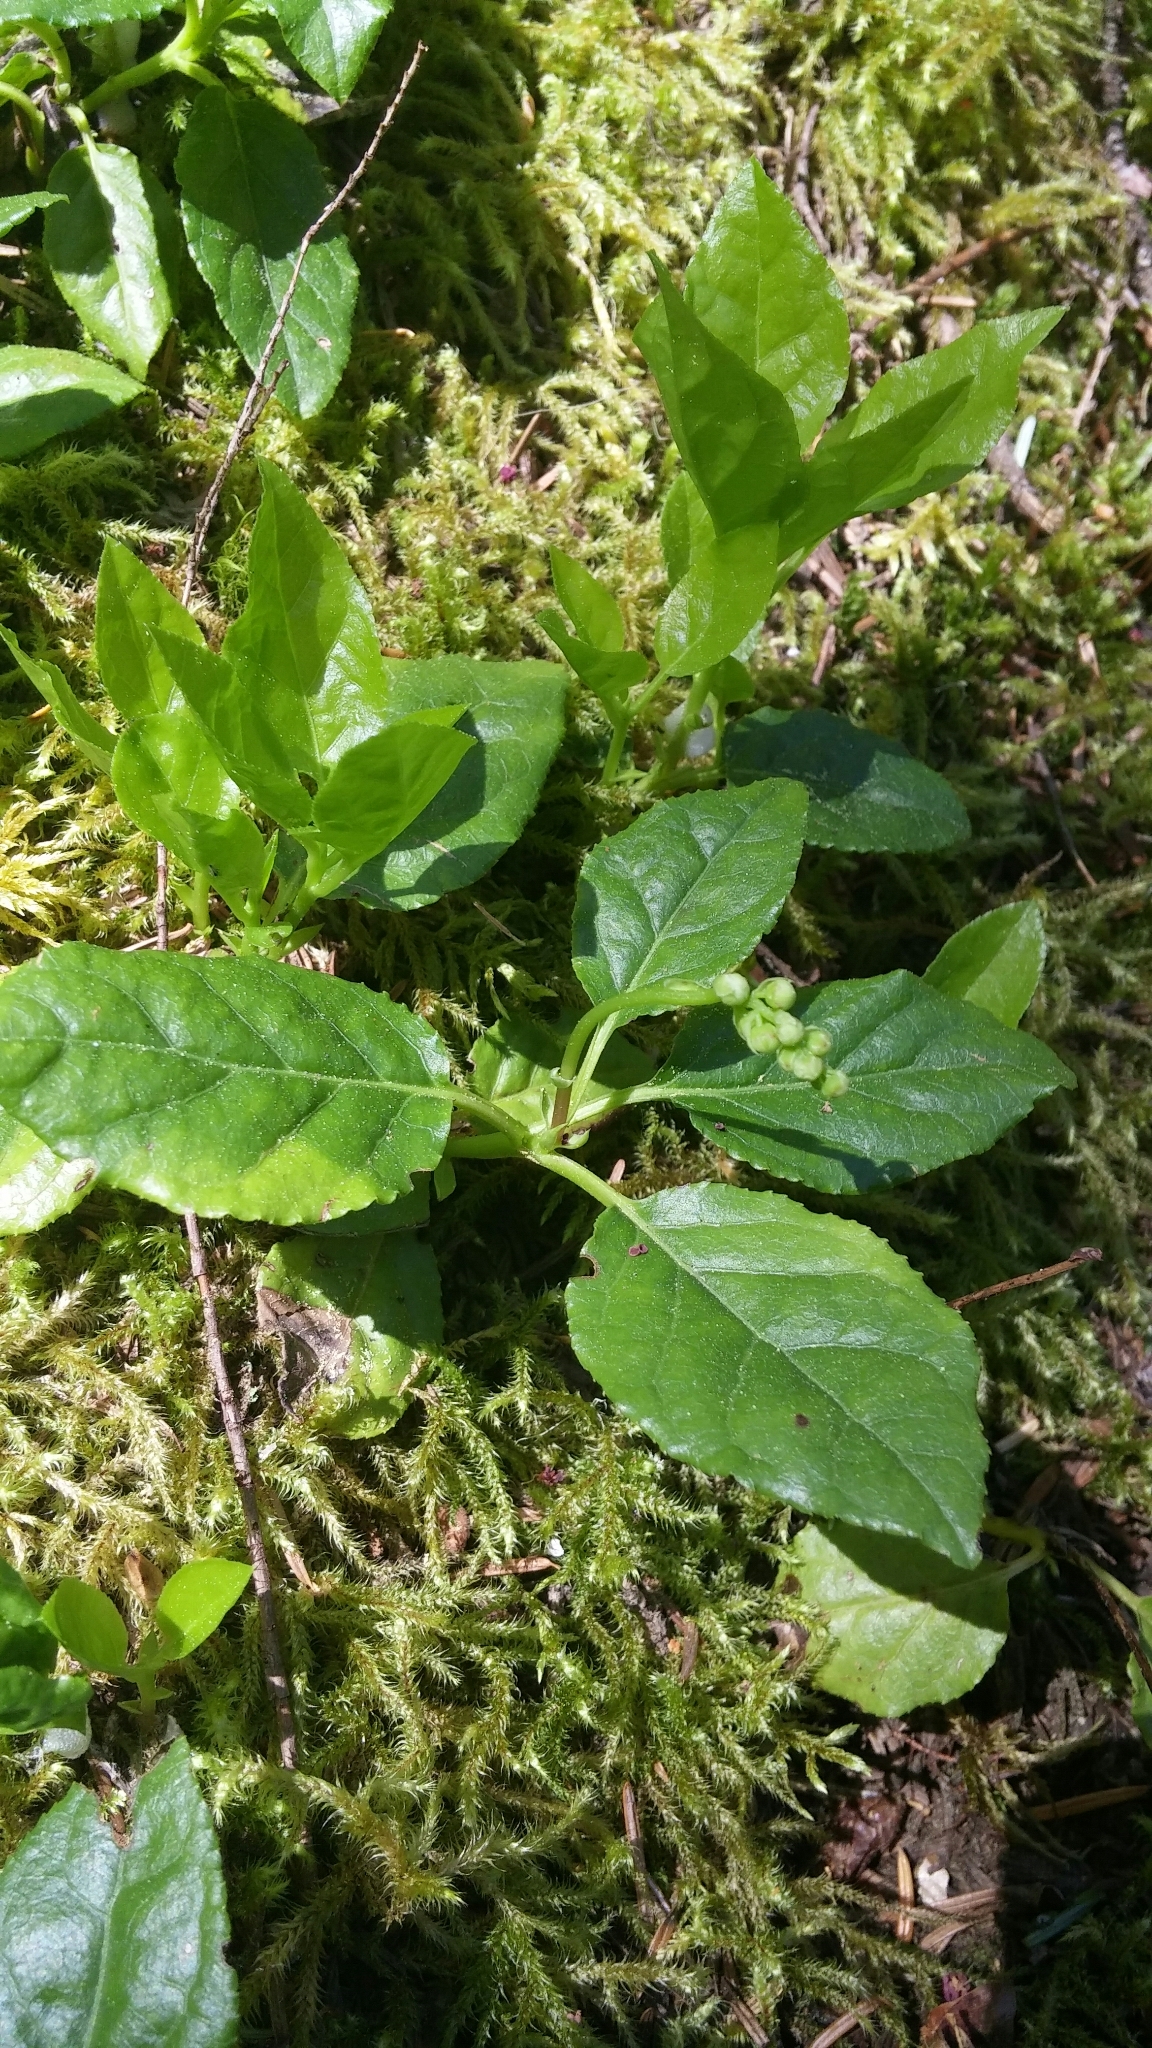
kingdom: Plantae
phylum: Tracheophyta
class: Magnoliopsida
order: Ericales
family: Ericaceae
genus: Orthilia
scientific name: Orthilia secunda
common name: One-sided orthilia
